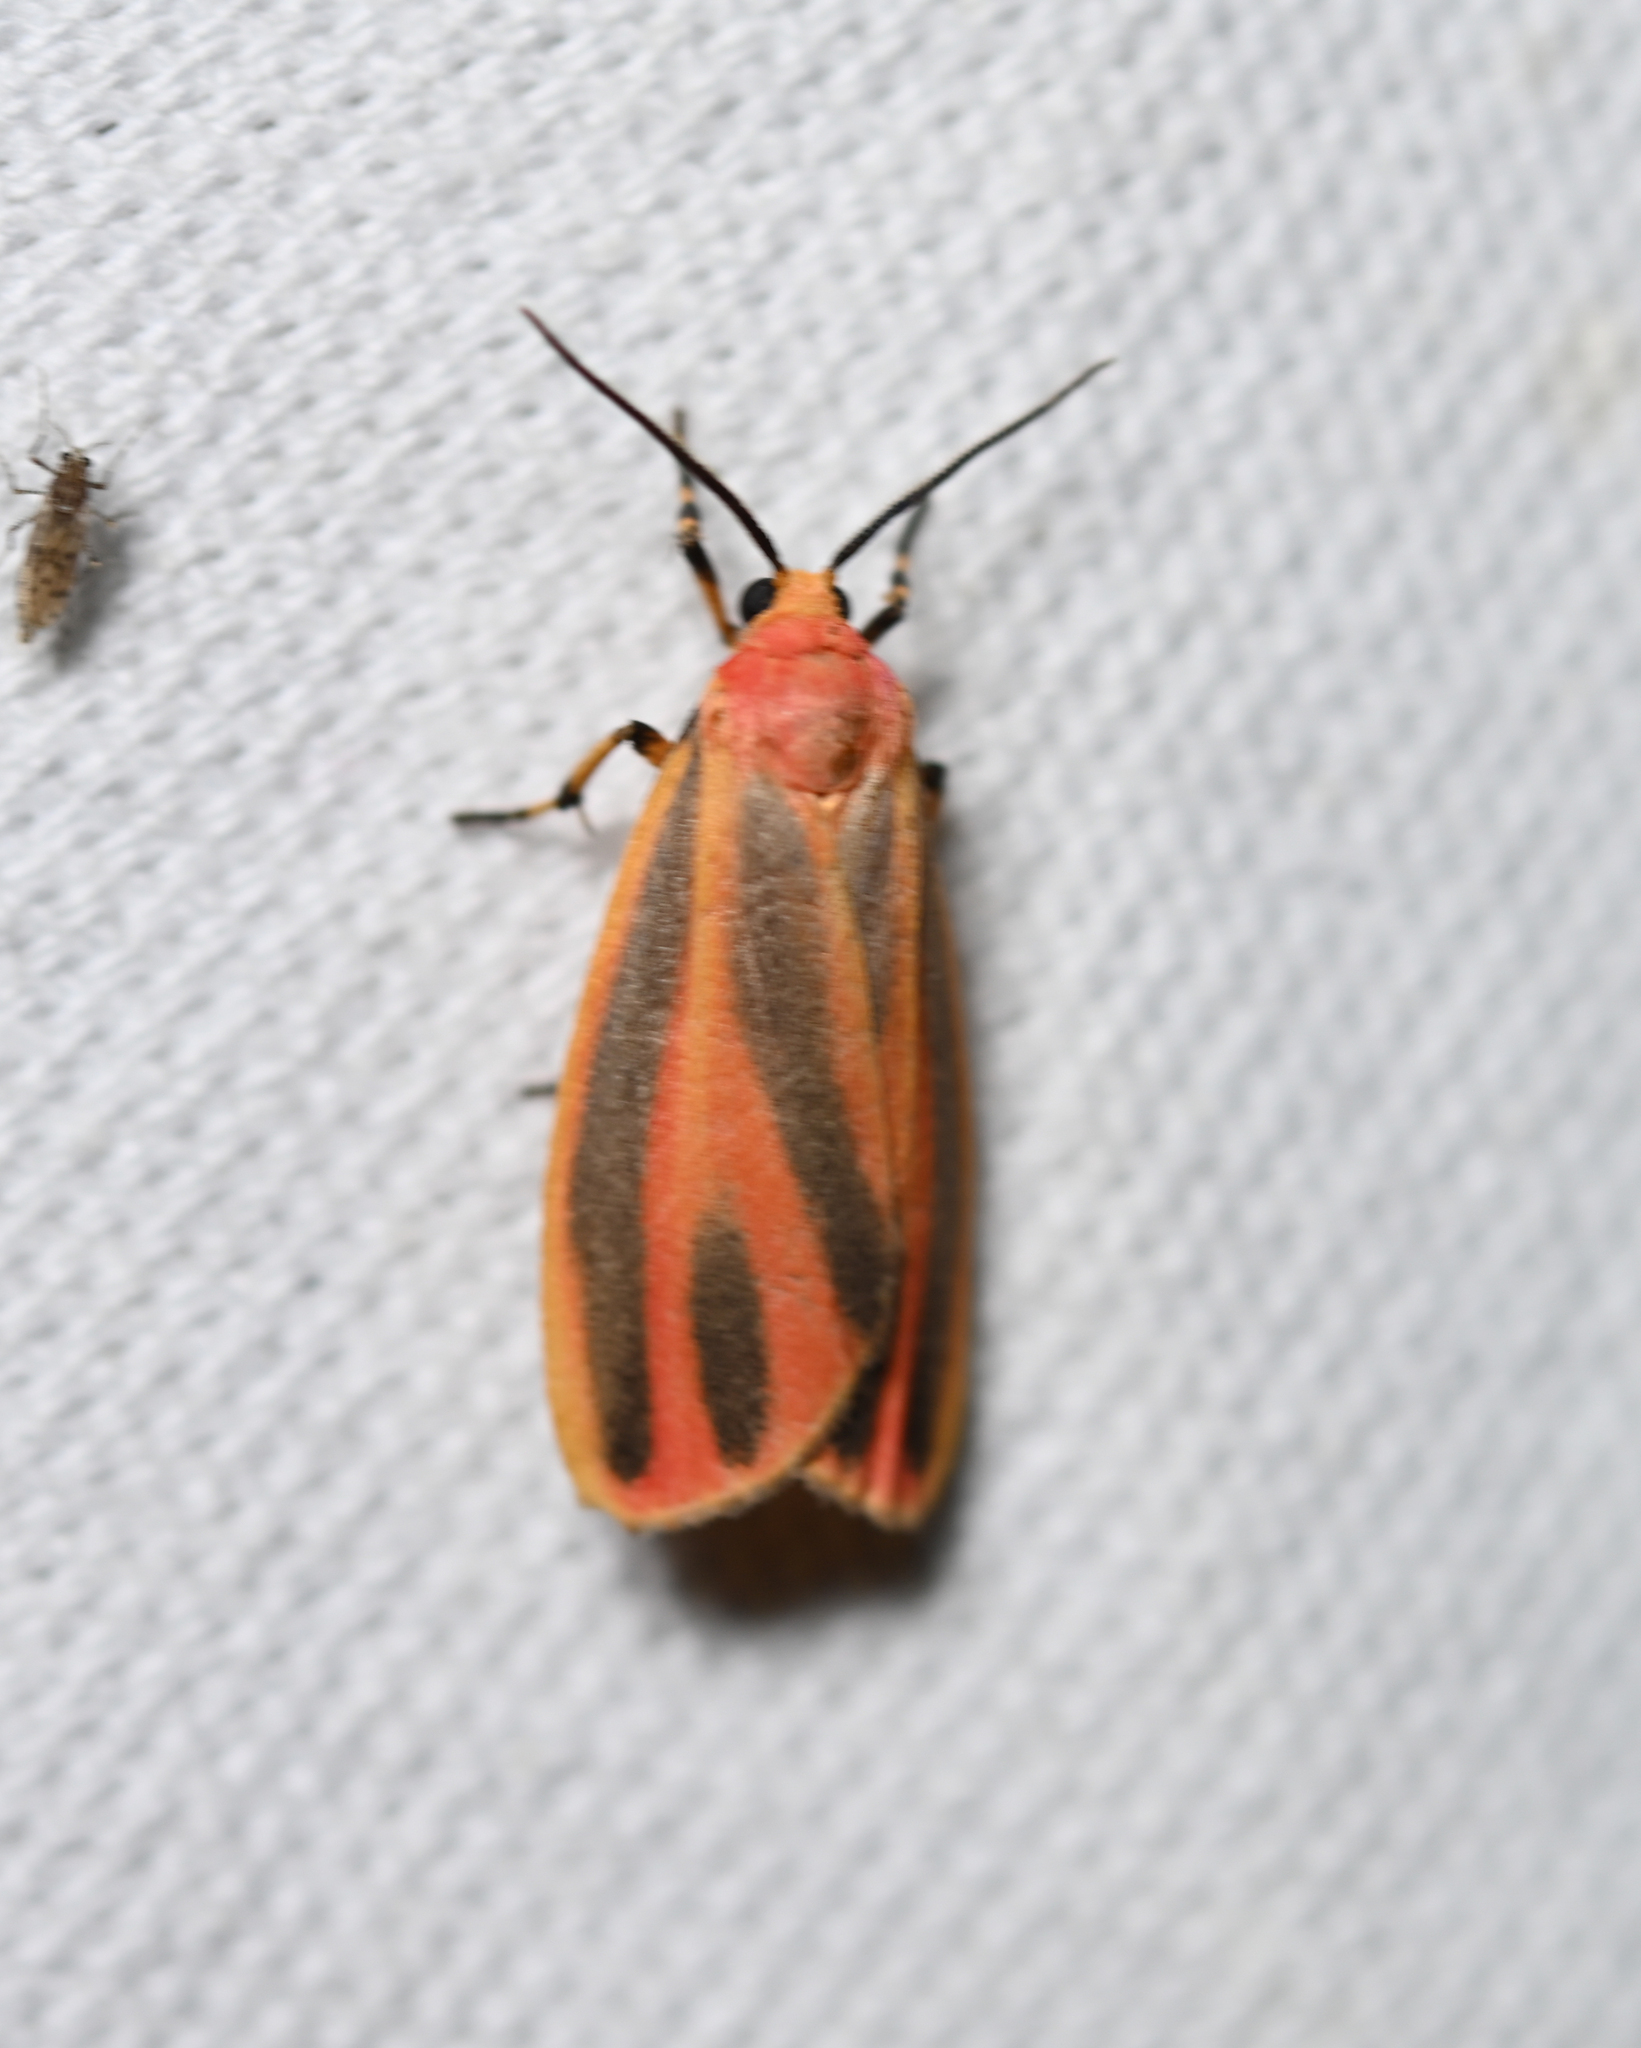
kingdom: Animalia
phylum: Arthropoda
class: Insecta
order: Lepidoptera
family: Erebidae
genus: Hypoprepia
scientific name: Hypoprepia fucosa
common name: Painted lichen moth
